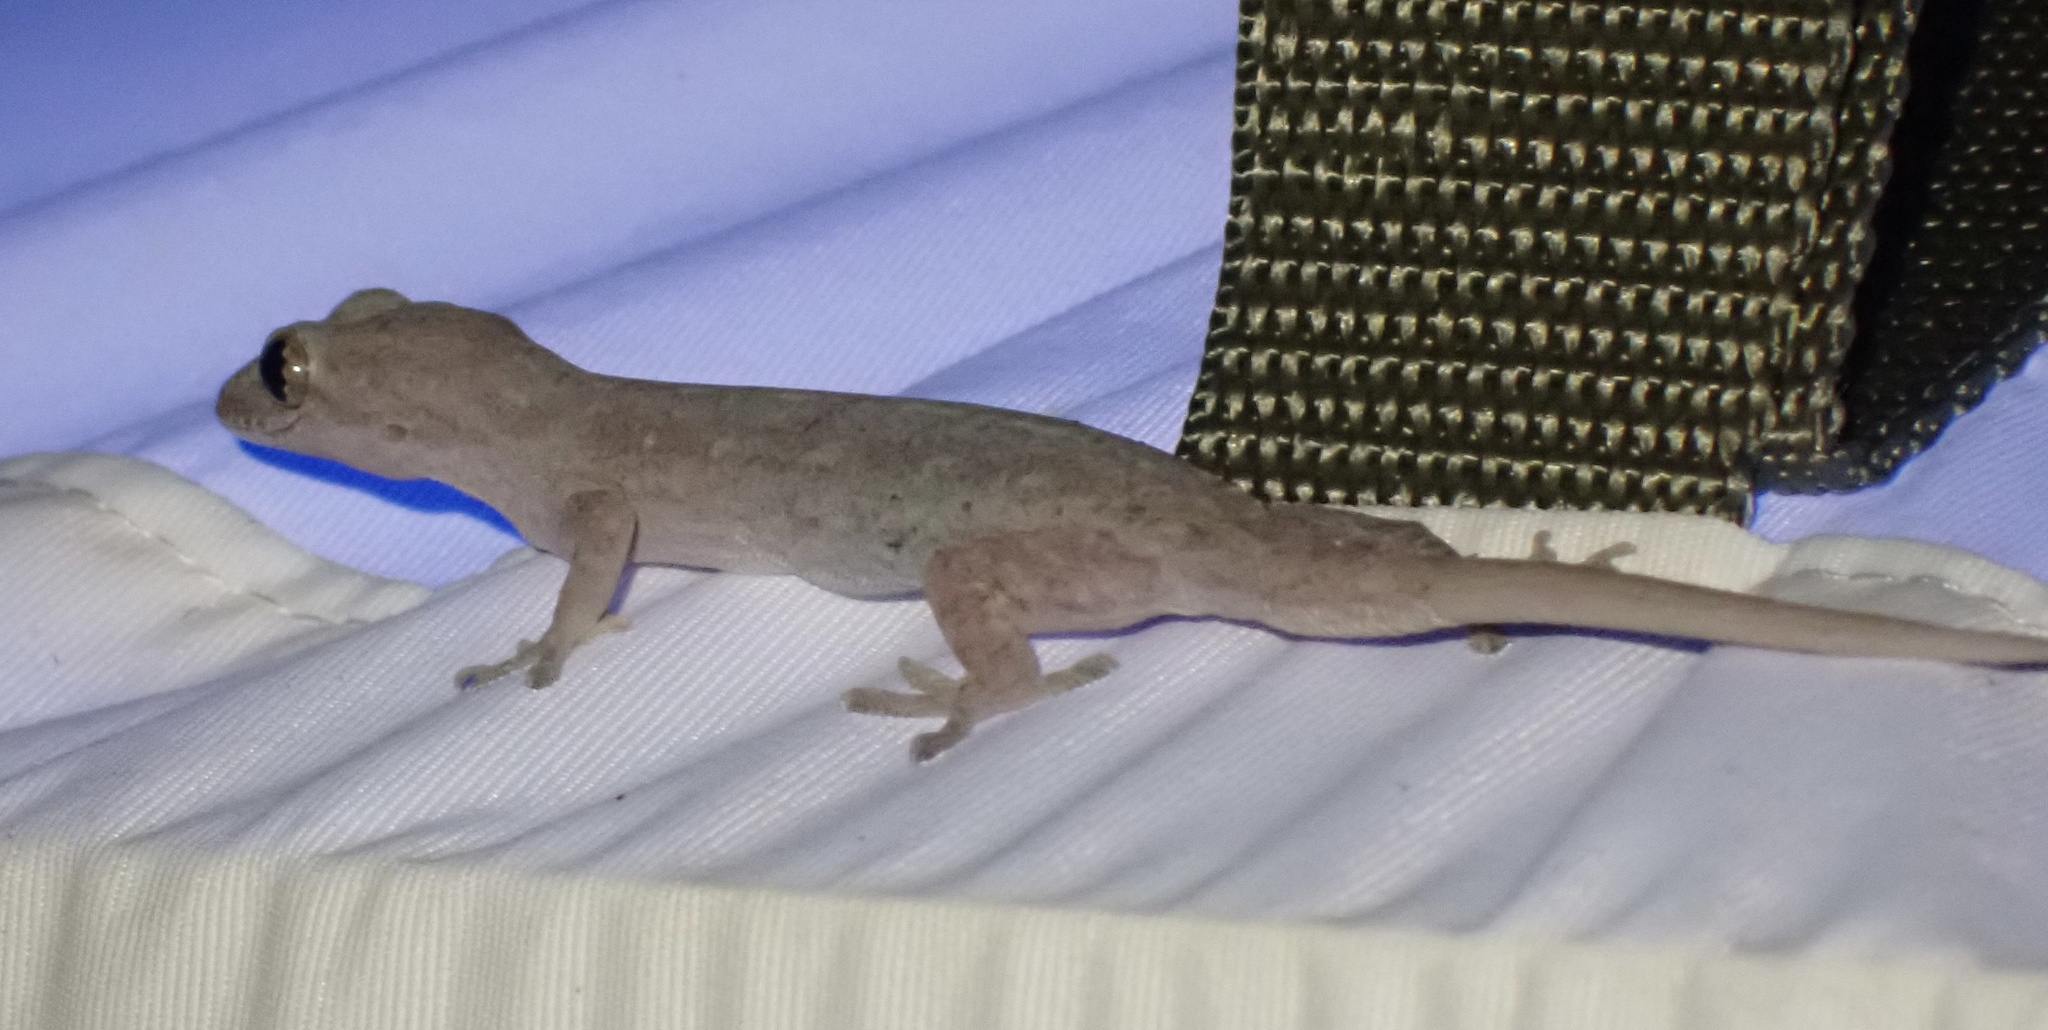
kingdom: Animalia
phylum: Chordata
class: Squamata
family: Gekkonidae
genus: Hemidactylus
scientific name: Hemidactylus frenatus
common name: Common house gecko
